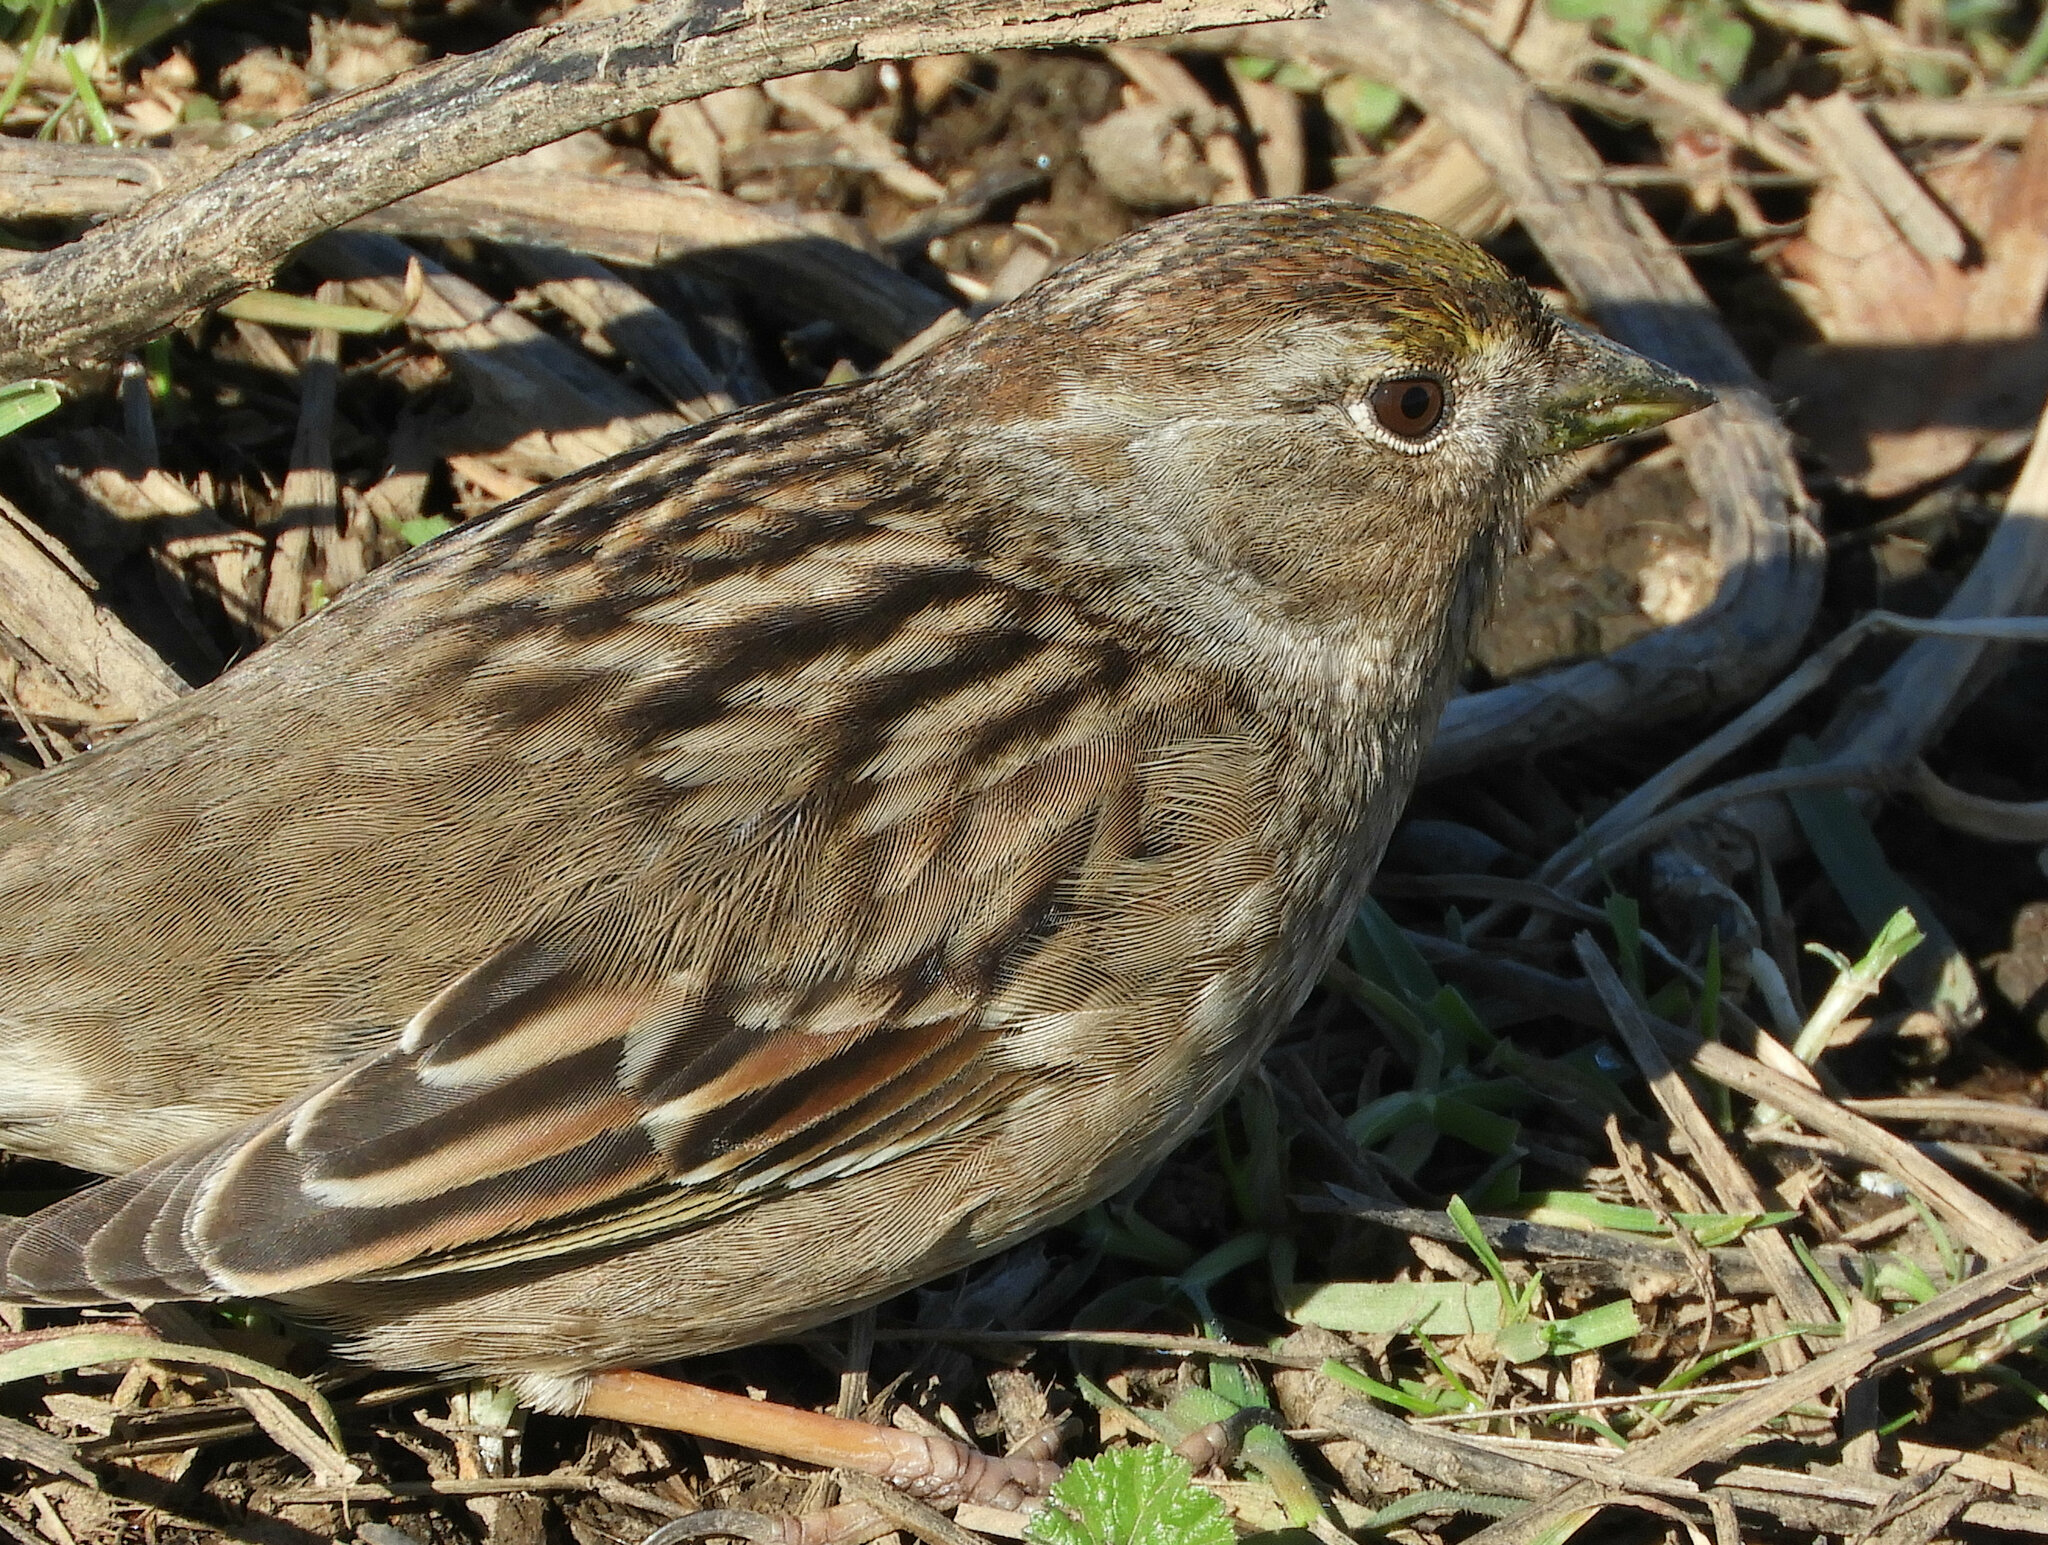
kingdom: Animalia
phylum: Chordata
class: Aves
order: Passeriformes
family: Passerellidae
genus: Zonotrichia
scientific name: Zonotrichia atricapilla
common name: Golden-crowned sparrow
